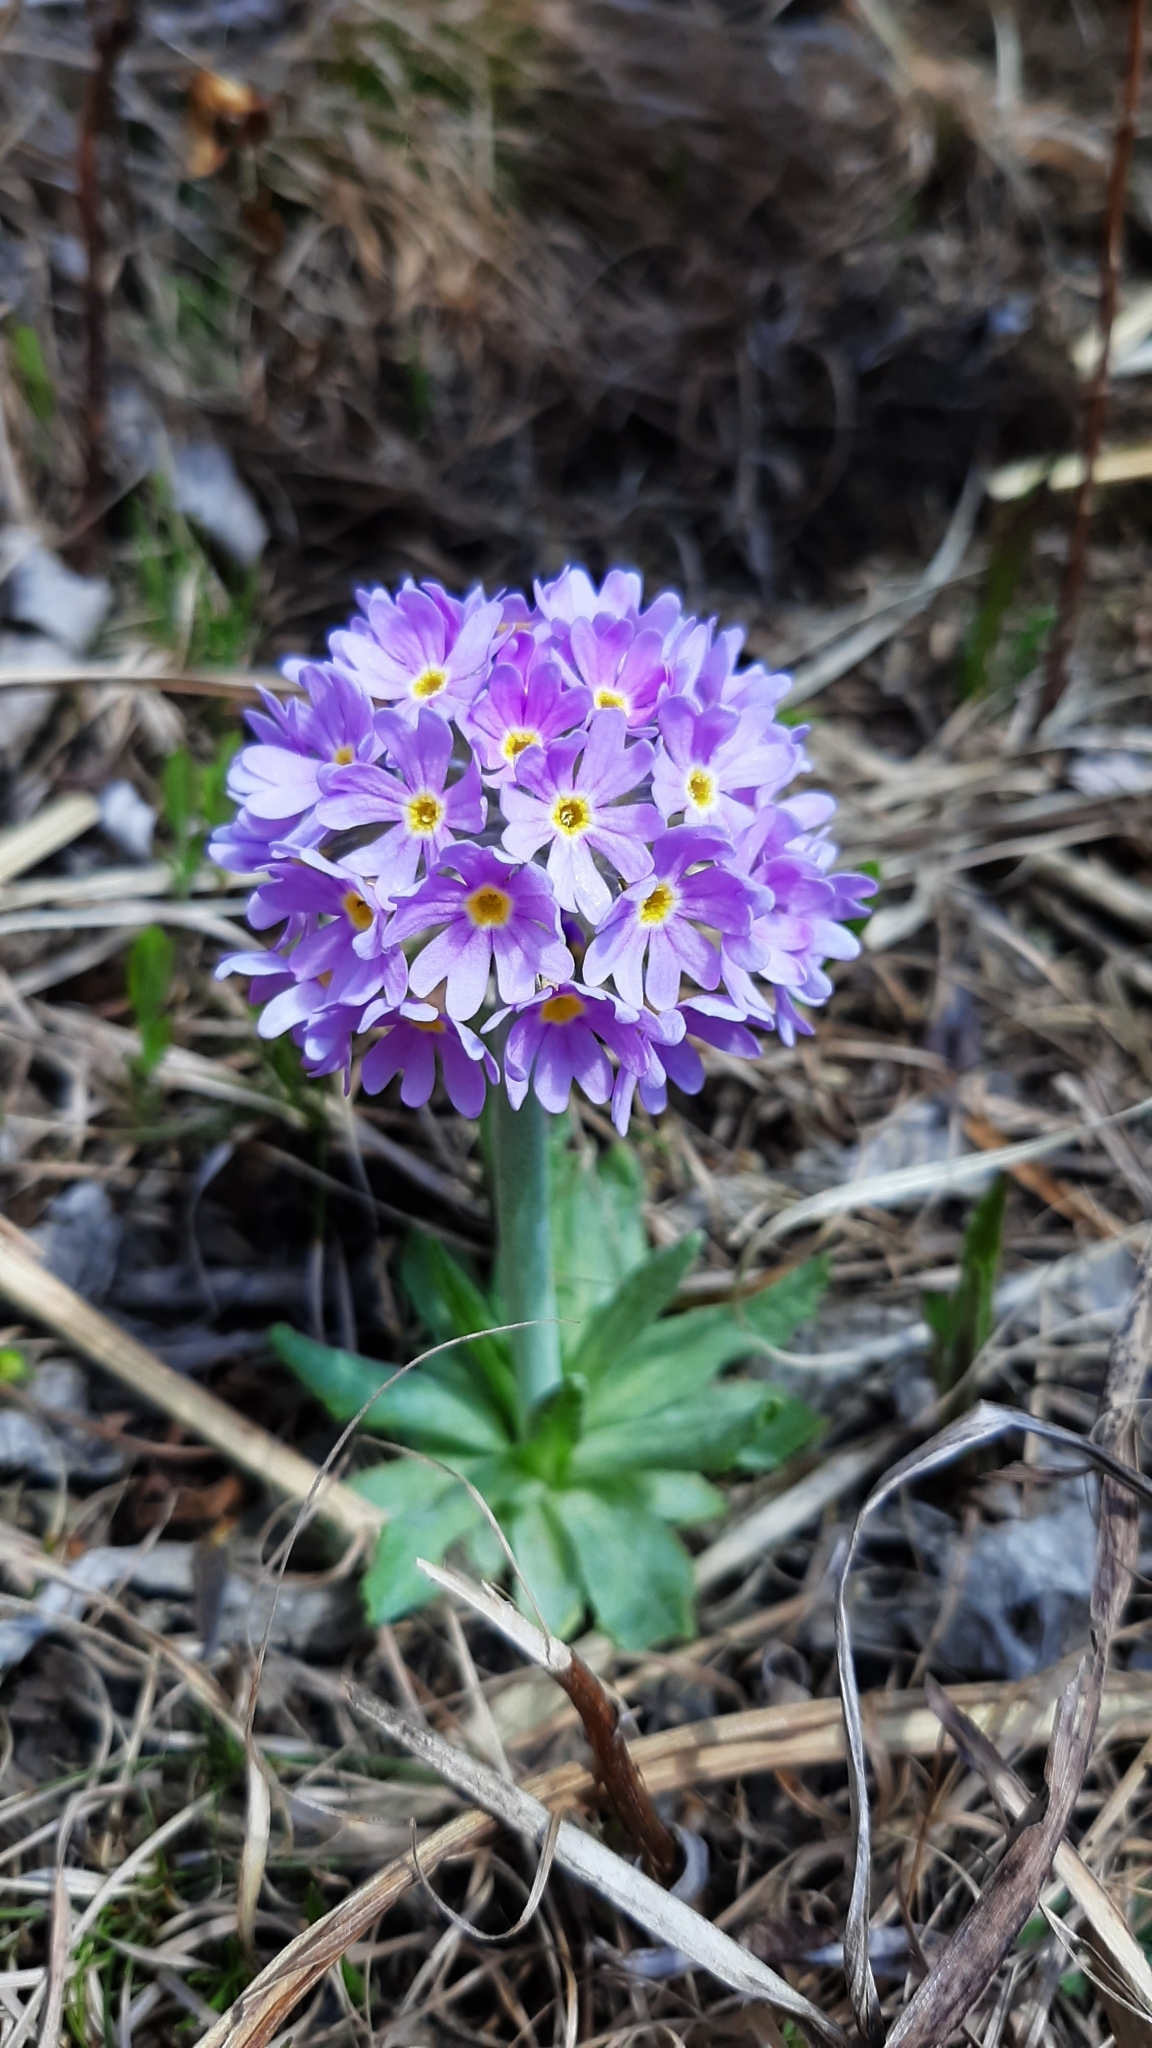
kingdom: Plantae
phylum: Tracheophyta
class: Magnoliopsida
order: Ericales
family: Primulaceae
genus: Primula
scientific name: Primula fistulosa
